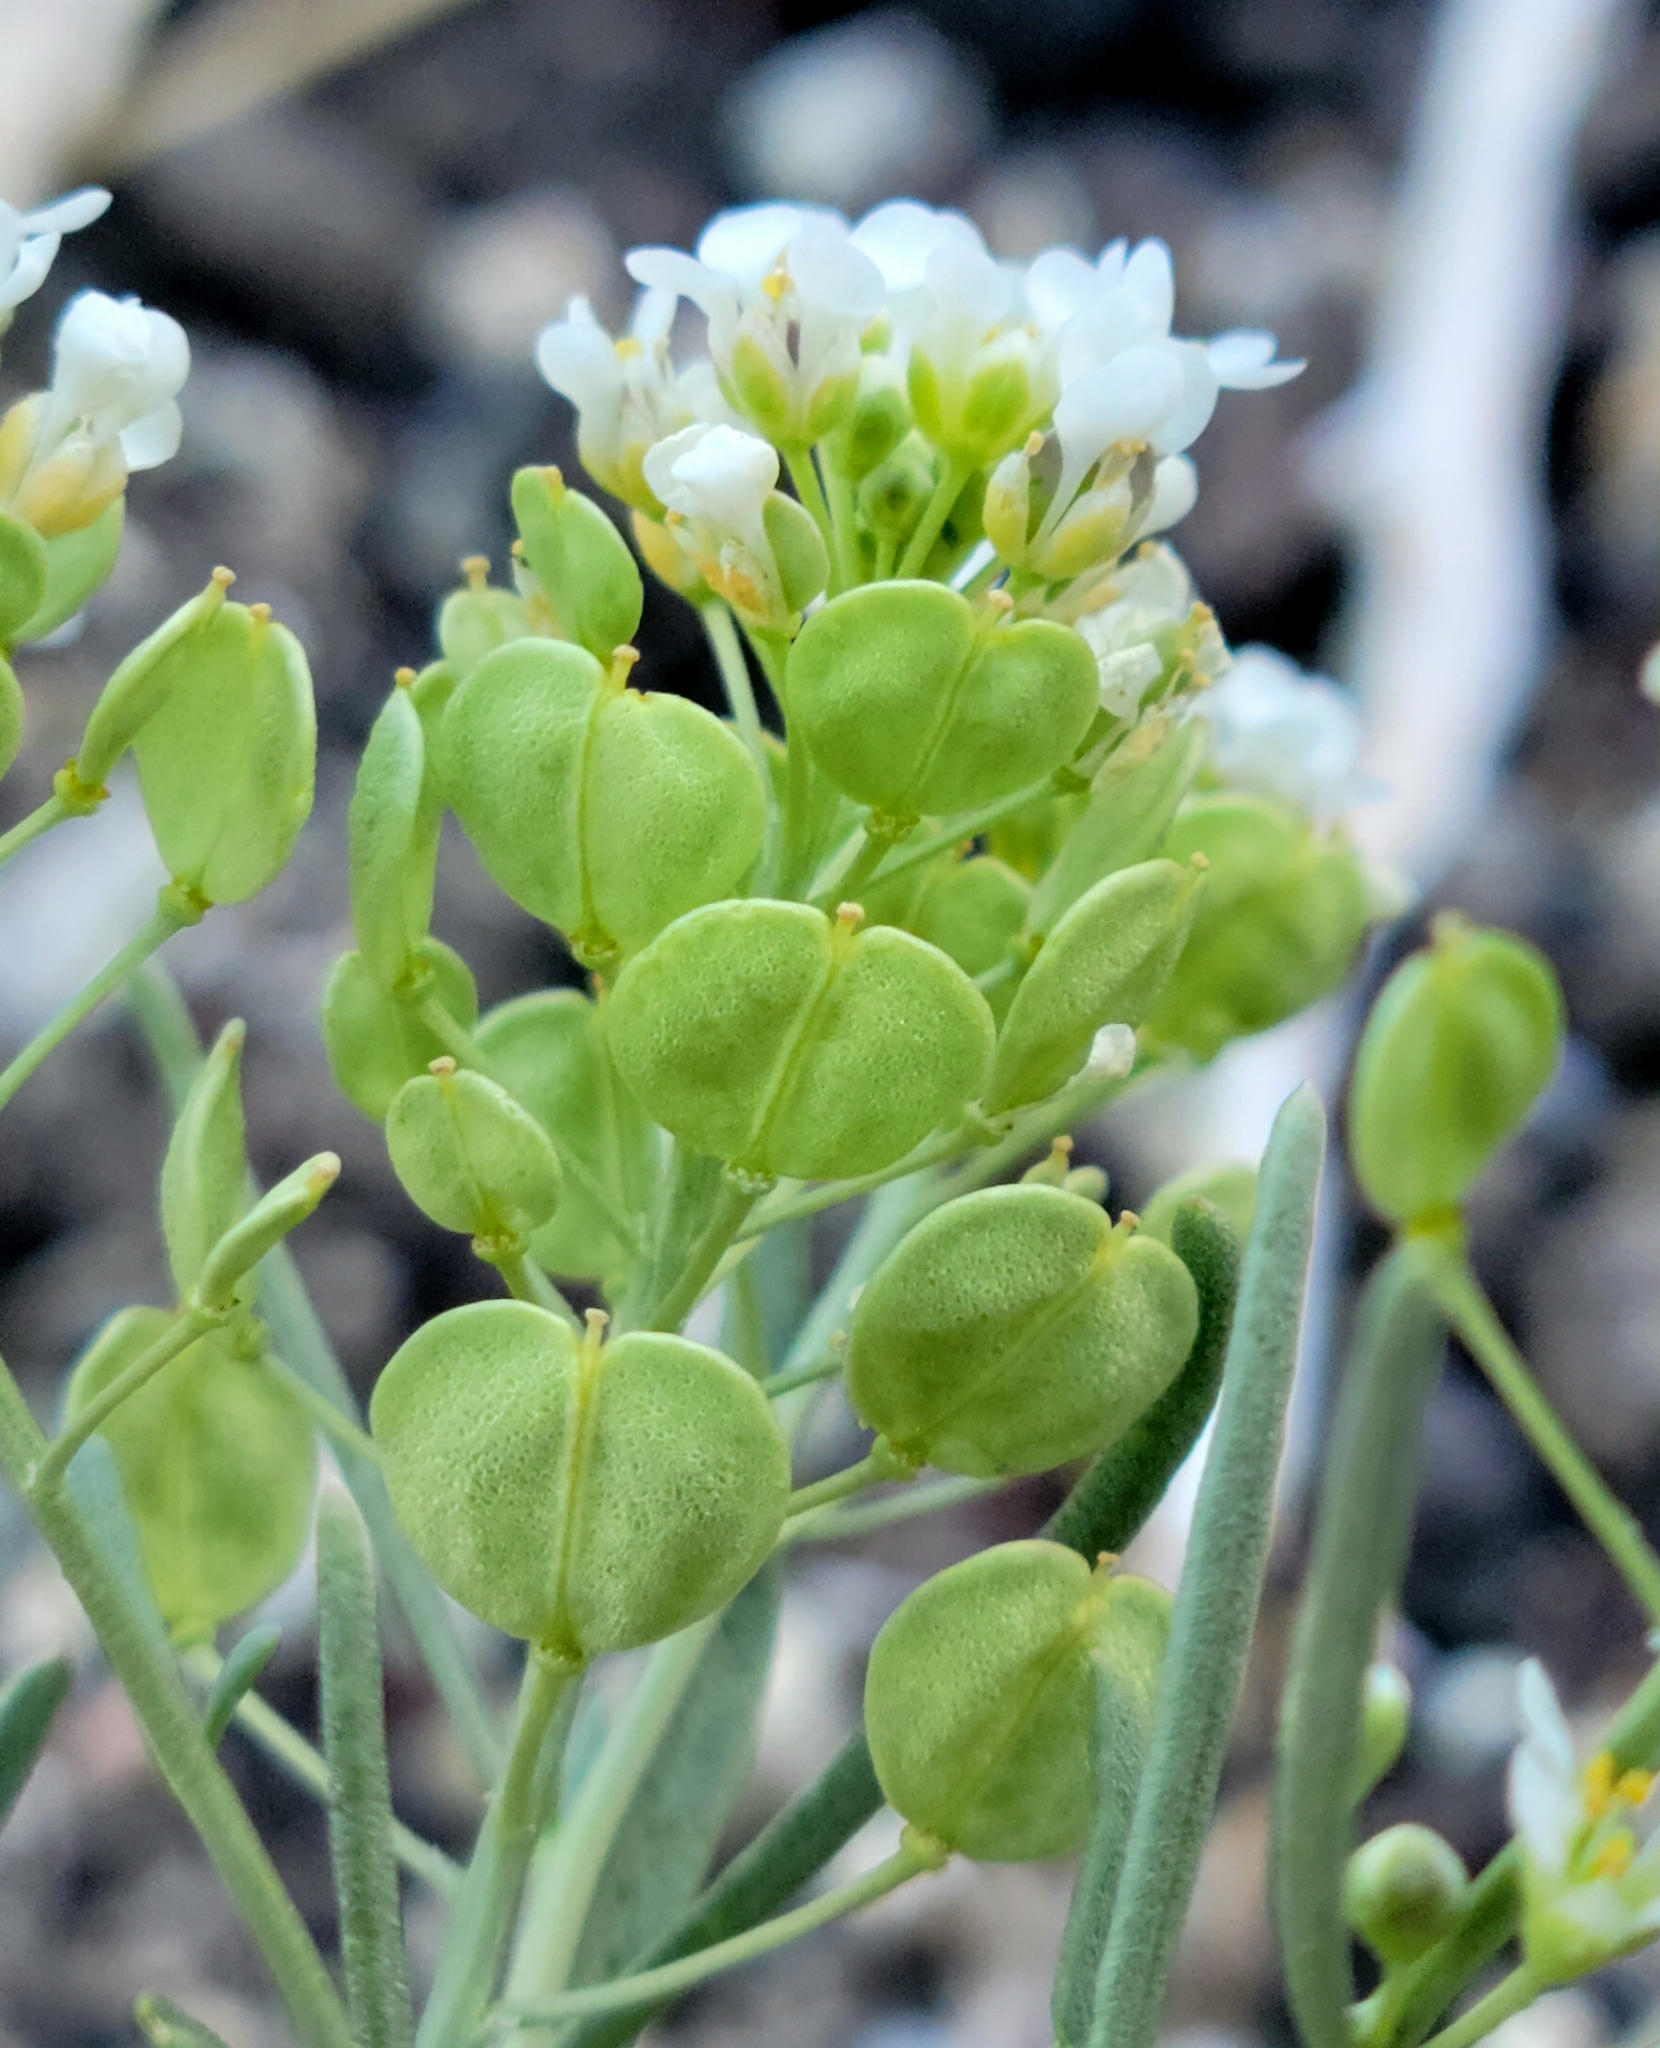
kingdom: Plantae
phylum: Tracheophyta
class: Magnoliopsida
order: Brassicales
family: Brassicaceae
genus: Lepidium
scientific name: Lepidium fremontii
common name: Fremont's pepperwort
